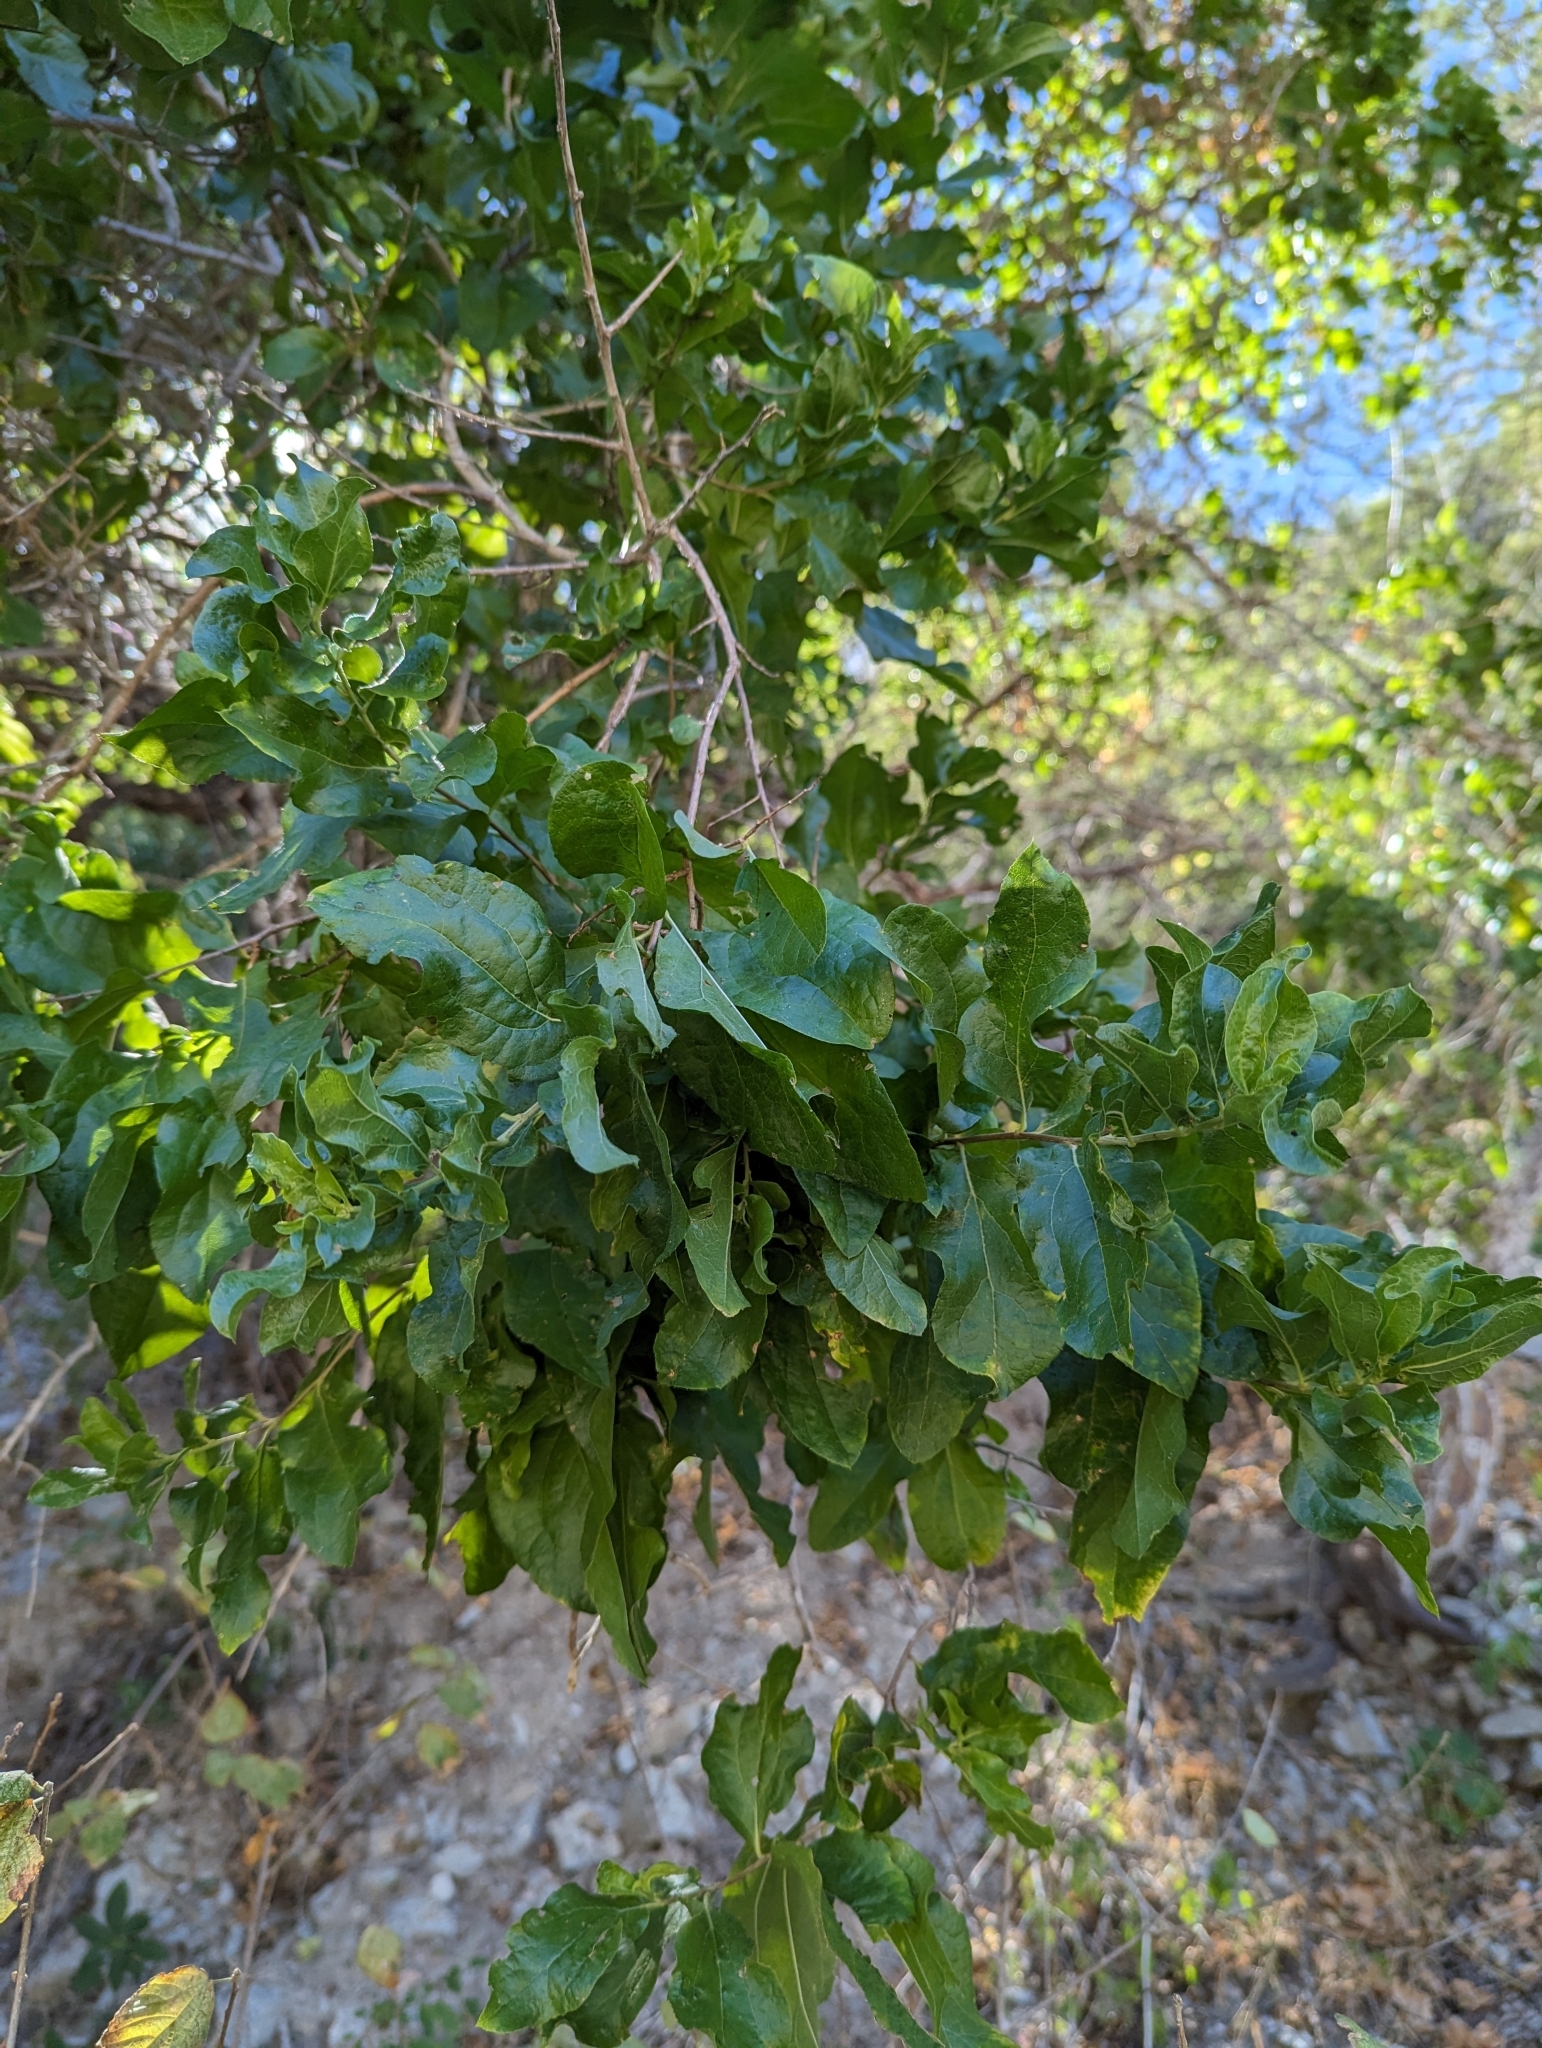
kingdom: Plantae
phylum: Tracheophyta
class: Magnoliopsida
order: Asterales
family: Asteraceae
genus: Nahuatlea
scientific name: Nahuatlea arborescens
